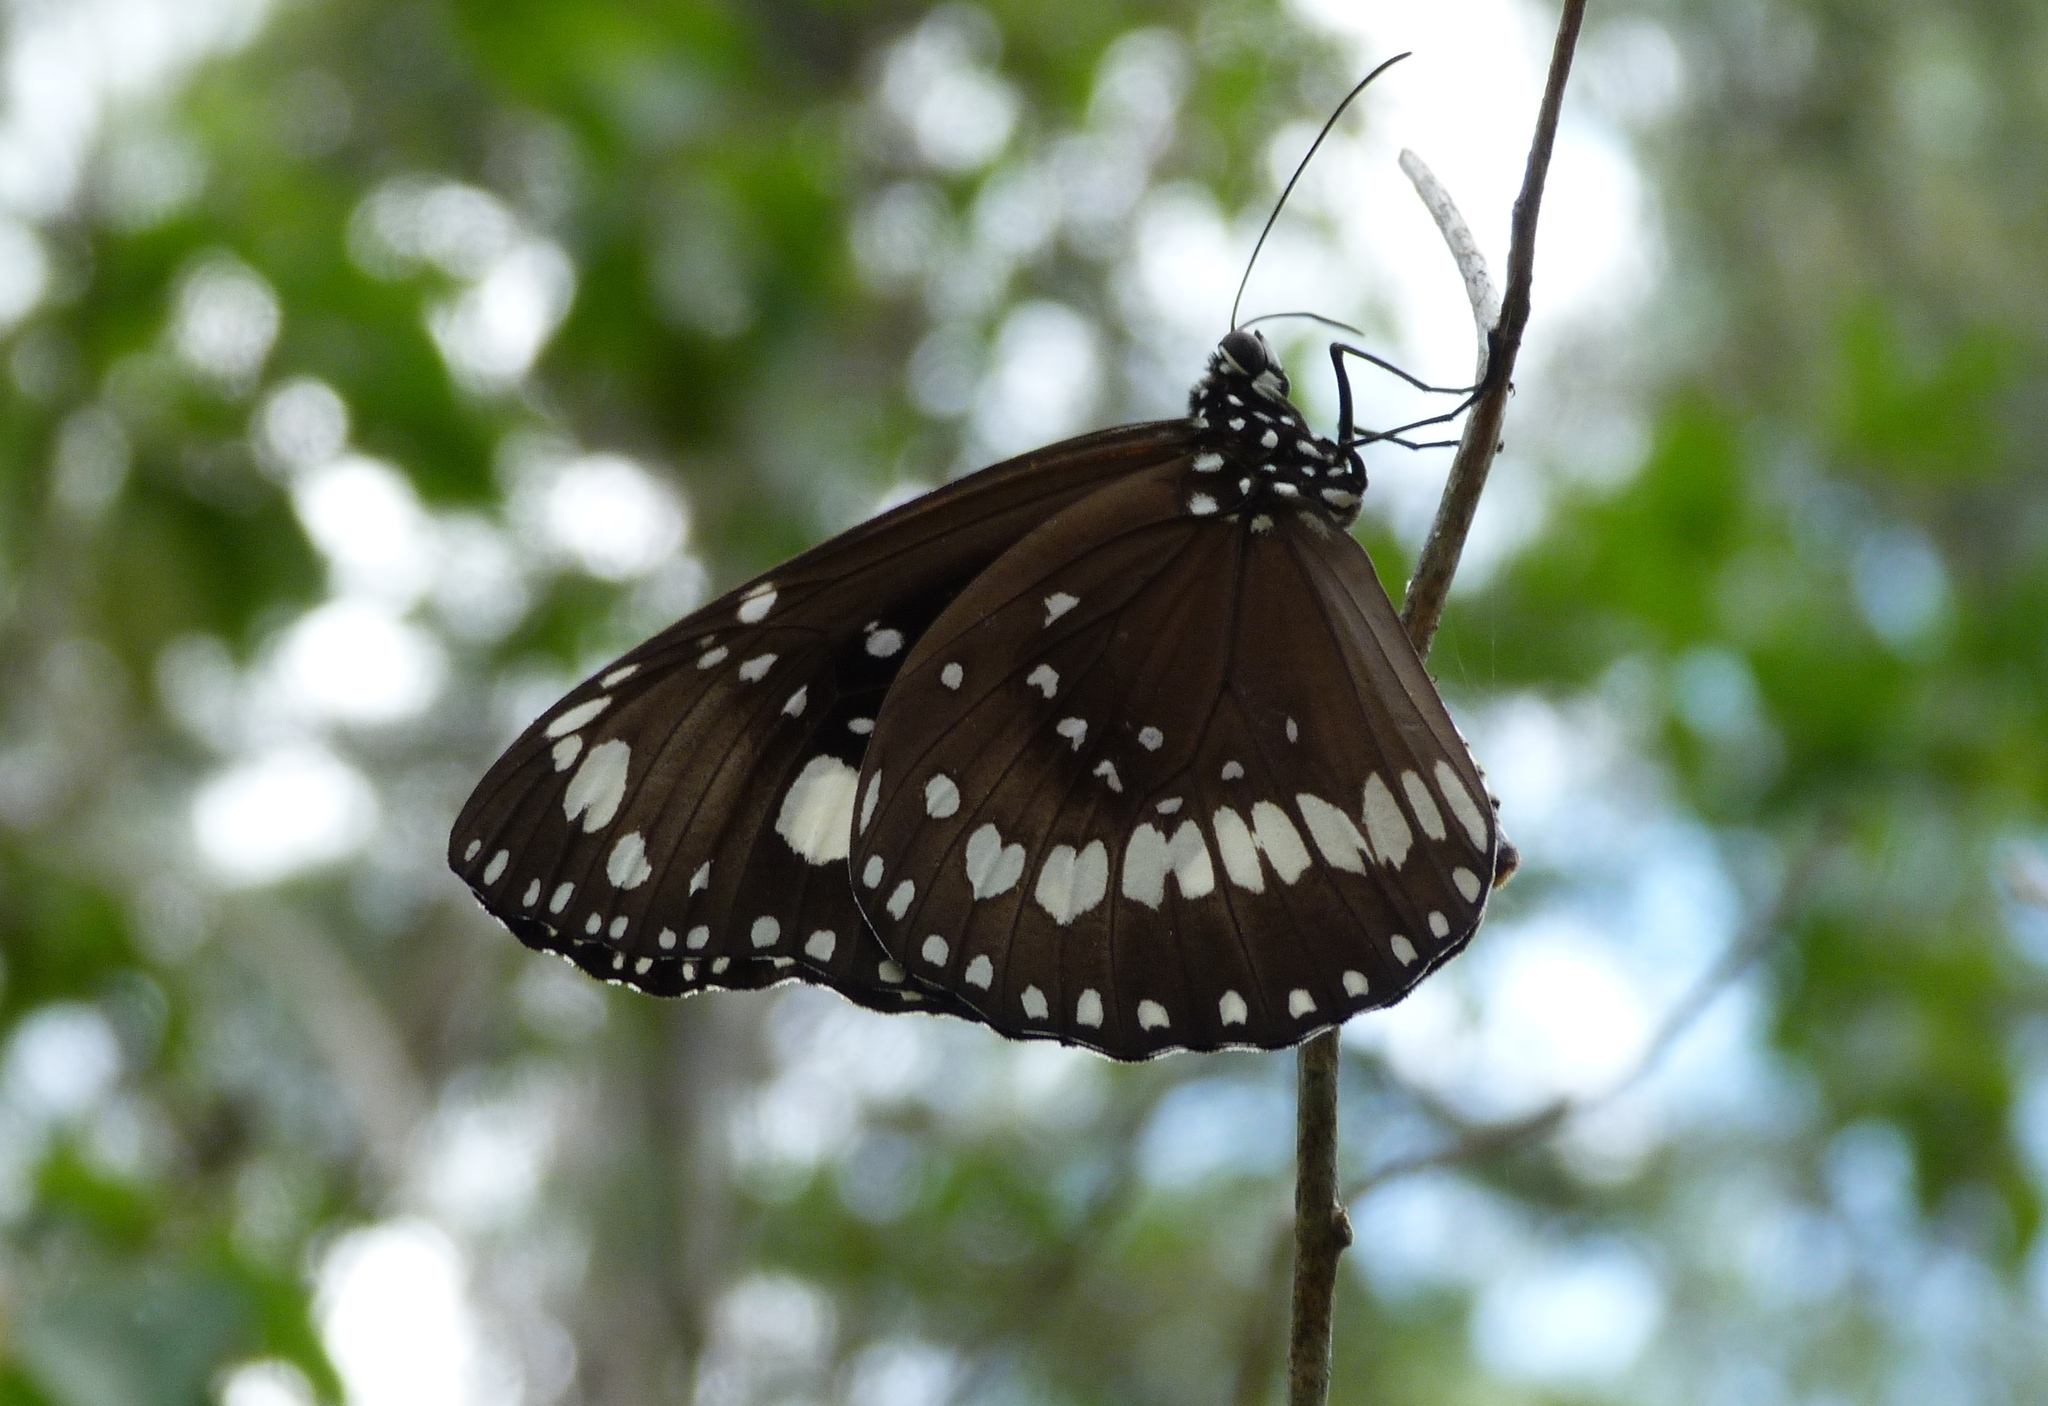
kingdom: Animalia
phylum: Arthropoda
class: Insecta
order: Lepidoptera
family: Nymphalidae
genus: Euploea
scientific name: Euploea core
